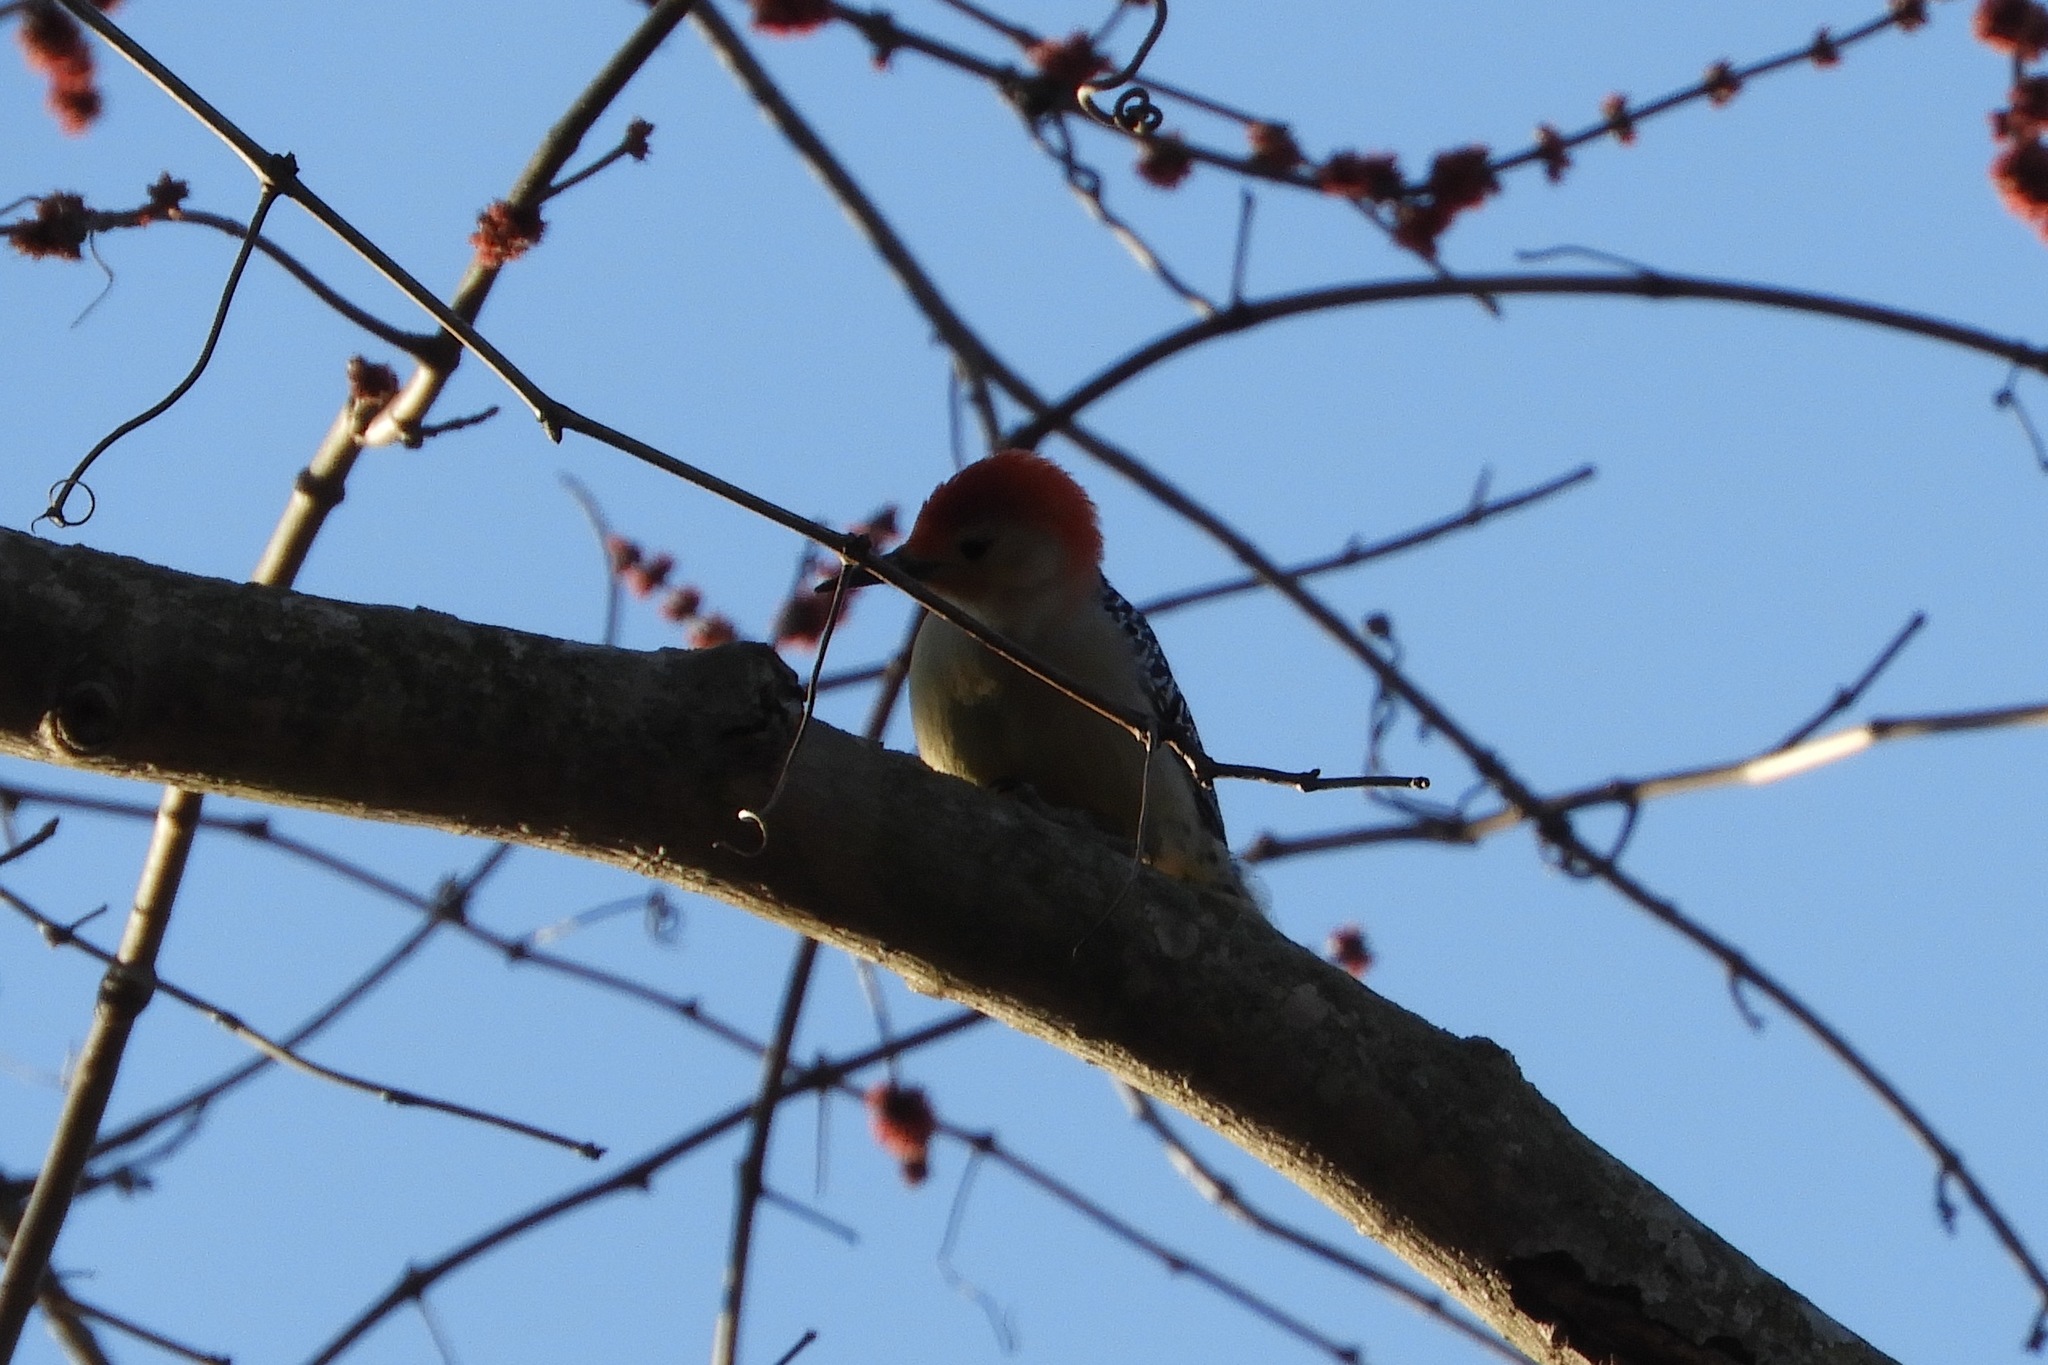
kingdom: Animalia
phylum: Chordata
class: Aves
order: Piciformes
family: Picidae
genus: Melanerpes
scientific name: Melanerpes carolinus
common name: Red-bellied woodpecker
